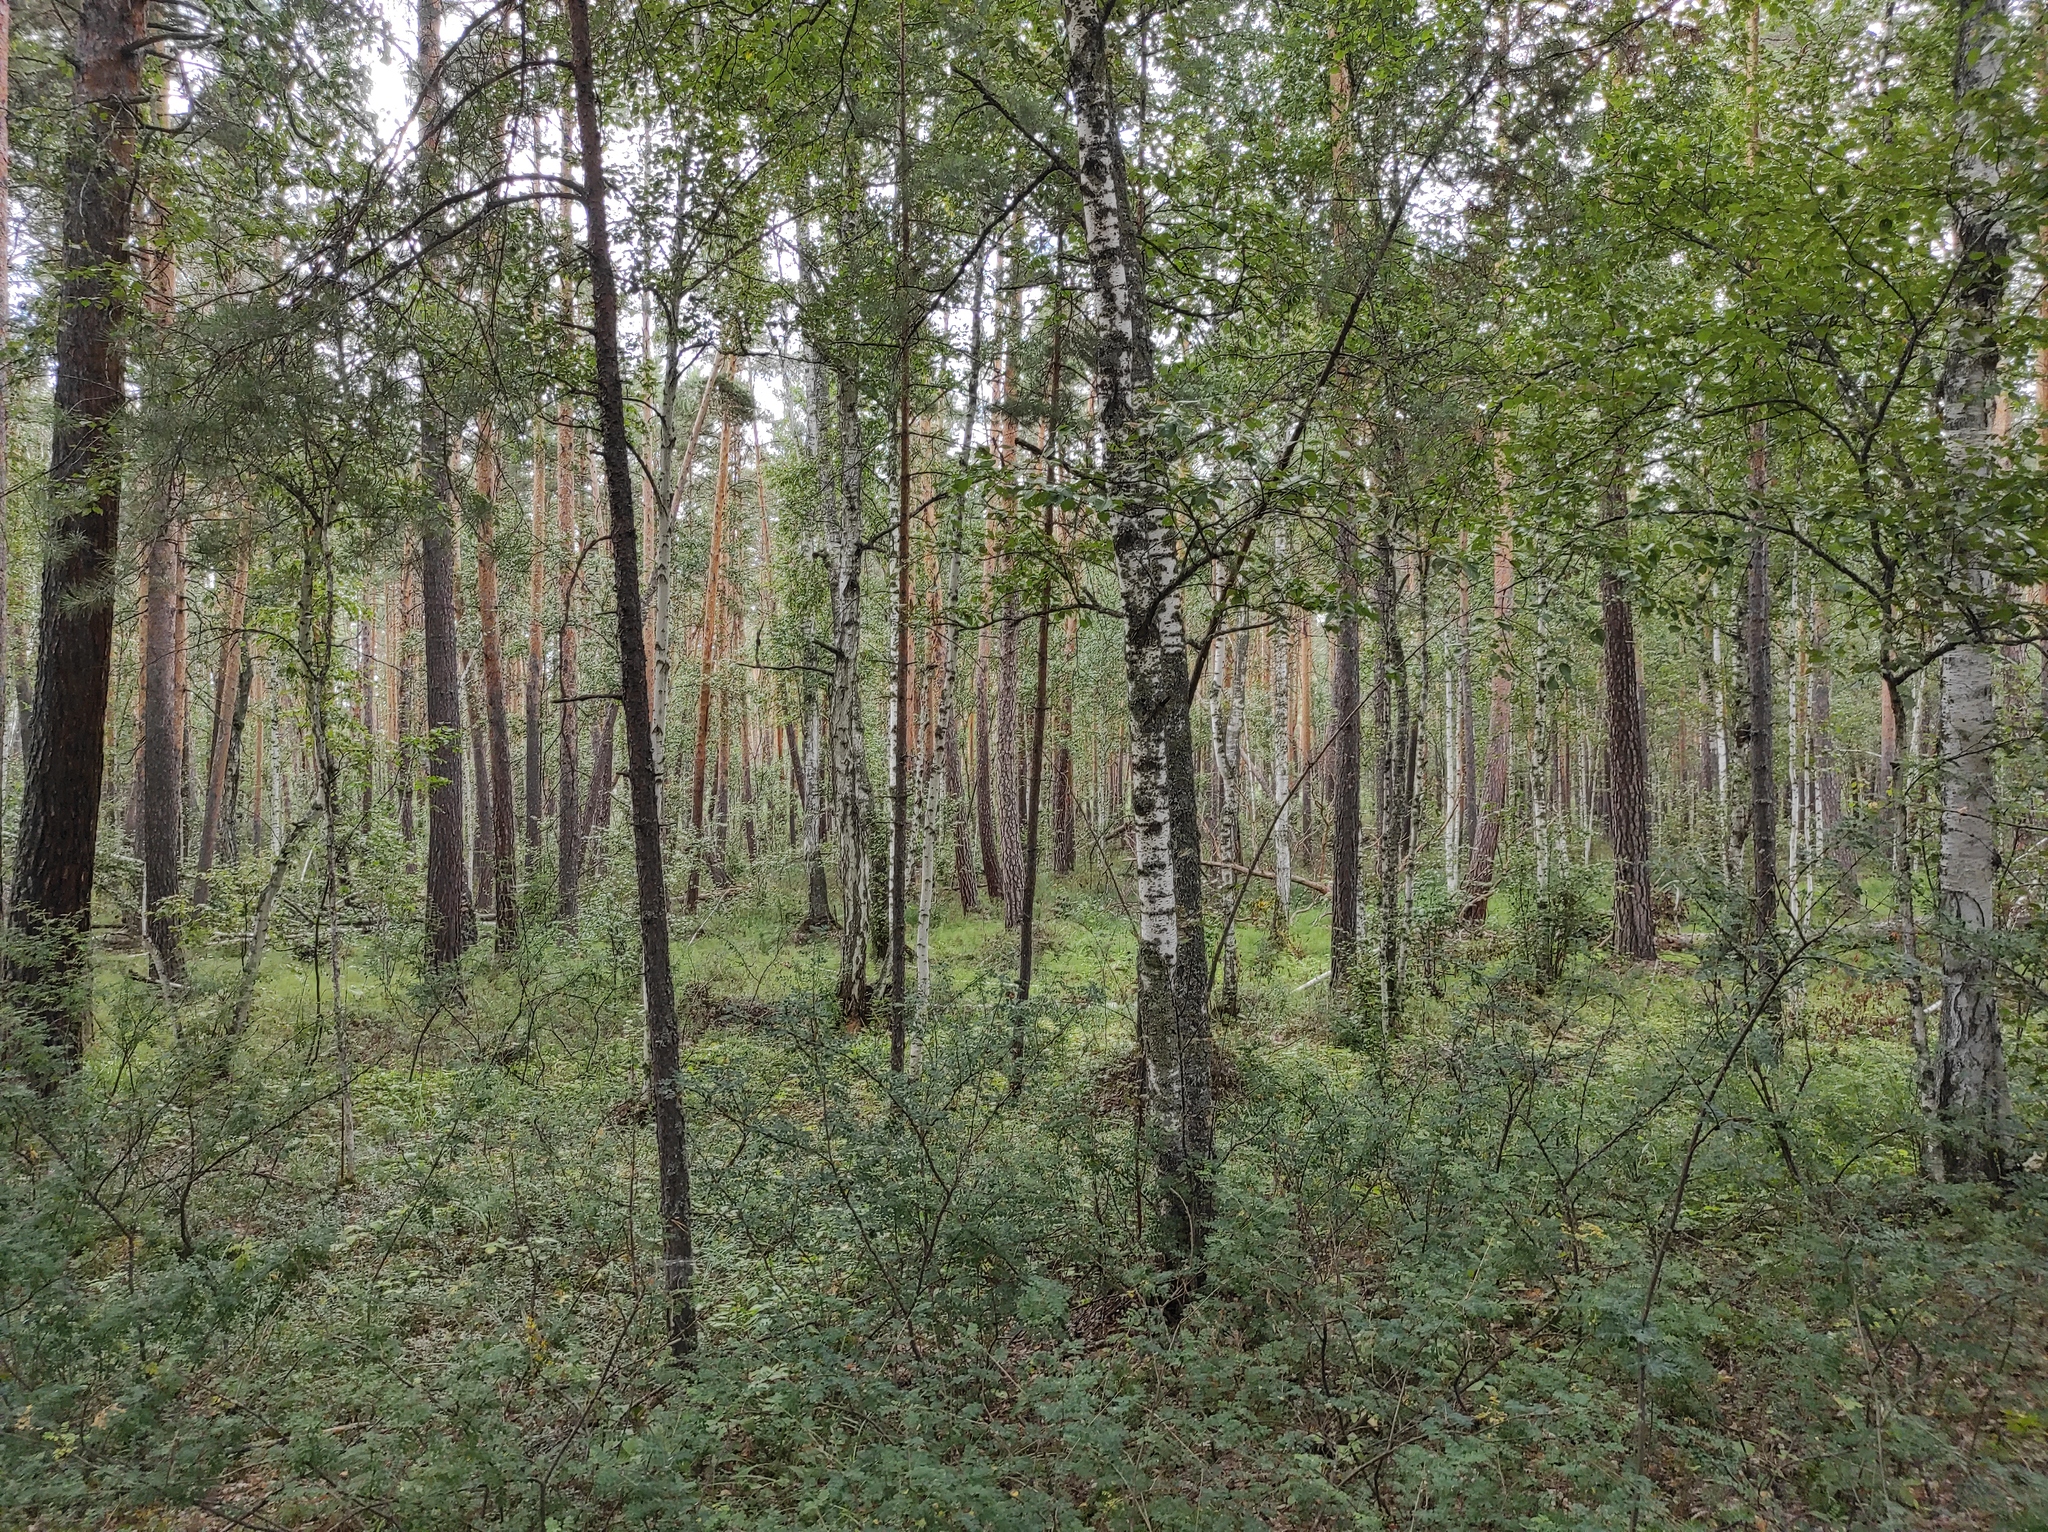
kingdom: Plantae
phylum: Tracheophyta
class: Magnoliopsida
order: Fabales
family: Fabaceae
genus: Caragana
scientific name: Caragana arborescens
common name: Siberian peashrub
